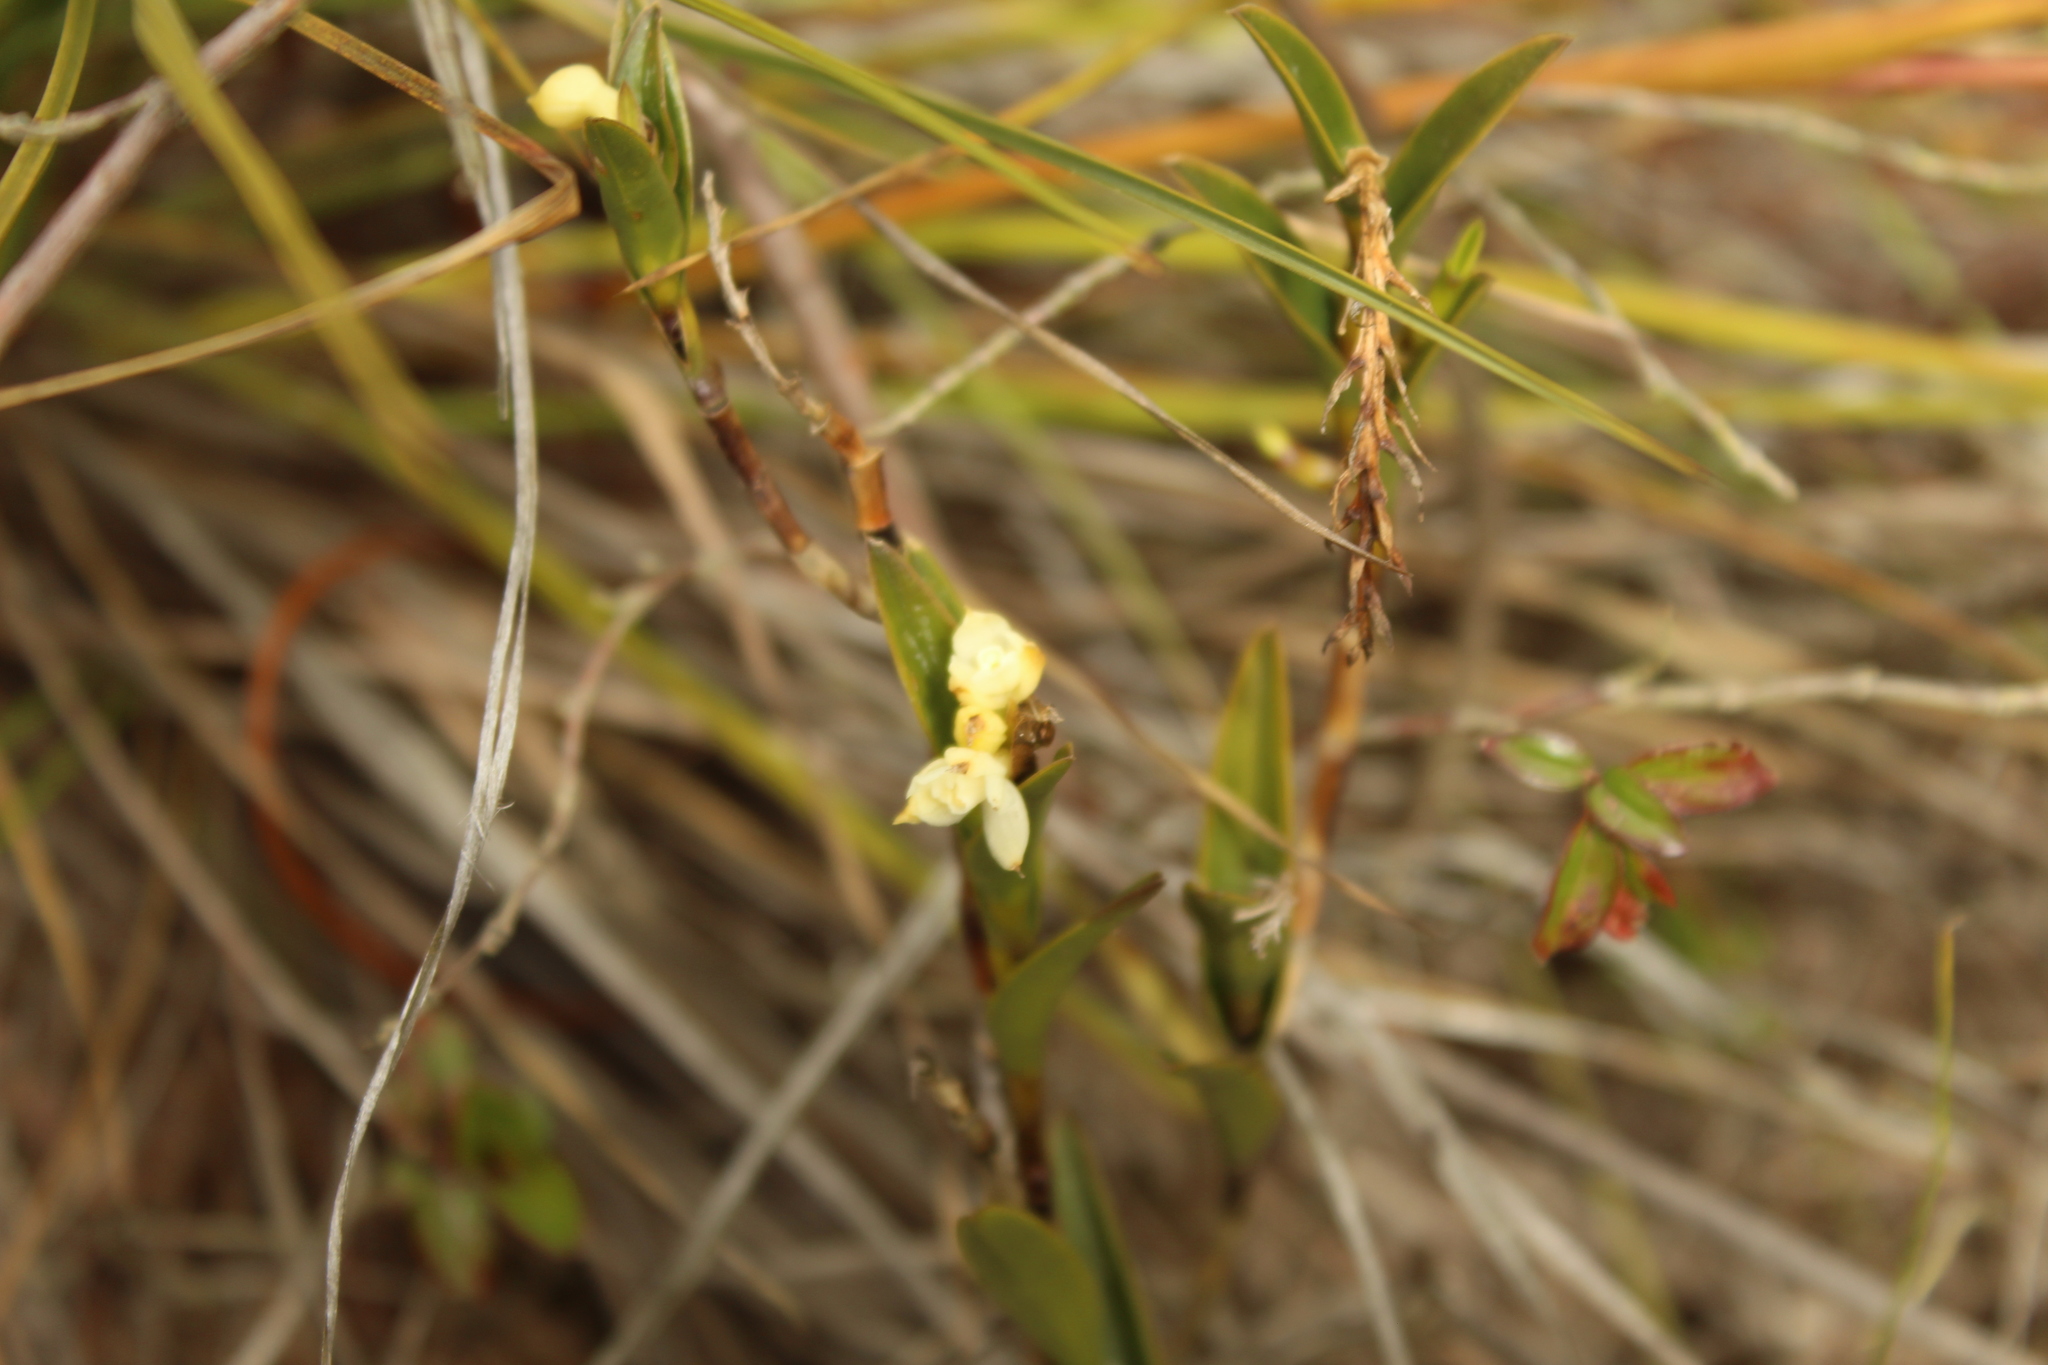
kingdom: Plantae
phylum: Tracheophyta
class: Liliopsida
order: Asparagales
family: Orchidaceae
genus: Epidendrum
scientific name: Epidendrum zipaquiranum
